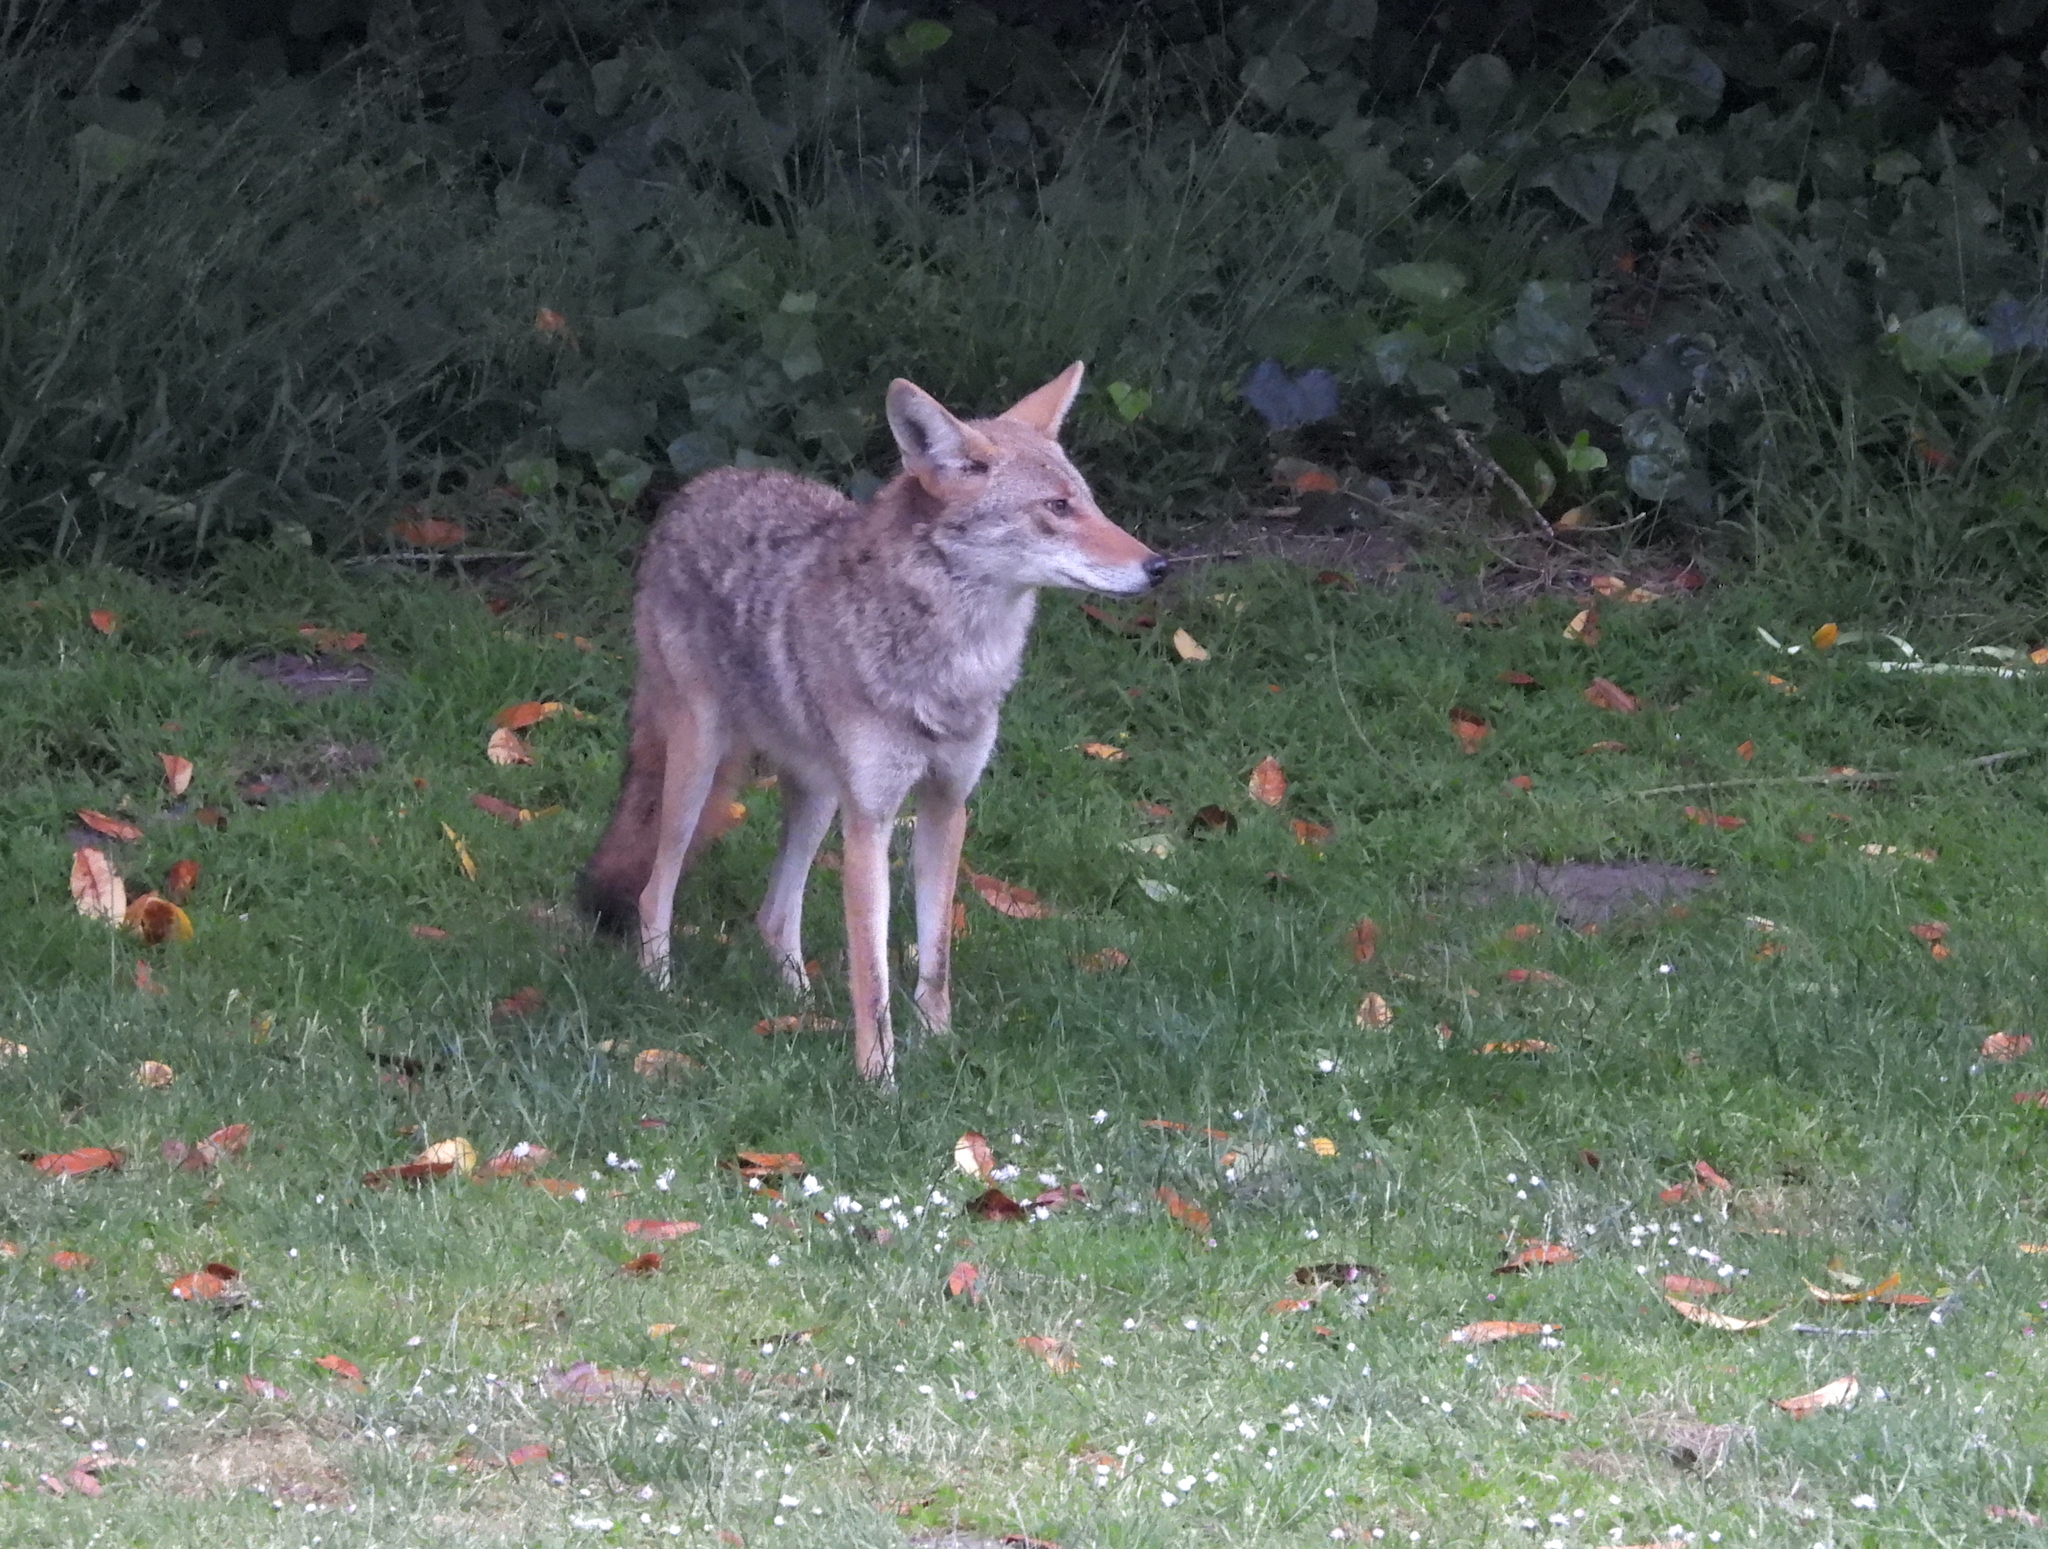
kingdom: Animalia
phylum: Chordata
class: Mammalia
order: Carnivora
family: Canidae
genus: Canis
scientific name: Canis latrans
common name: Coyote
